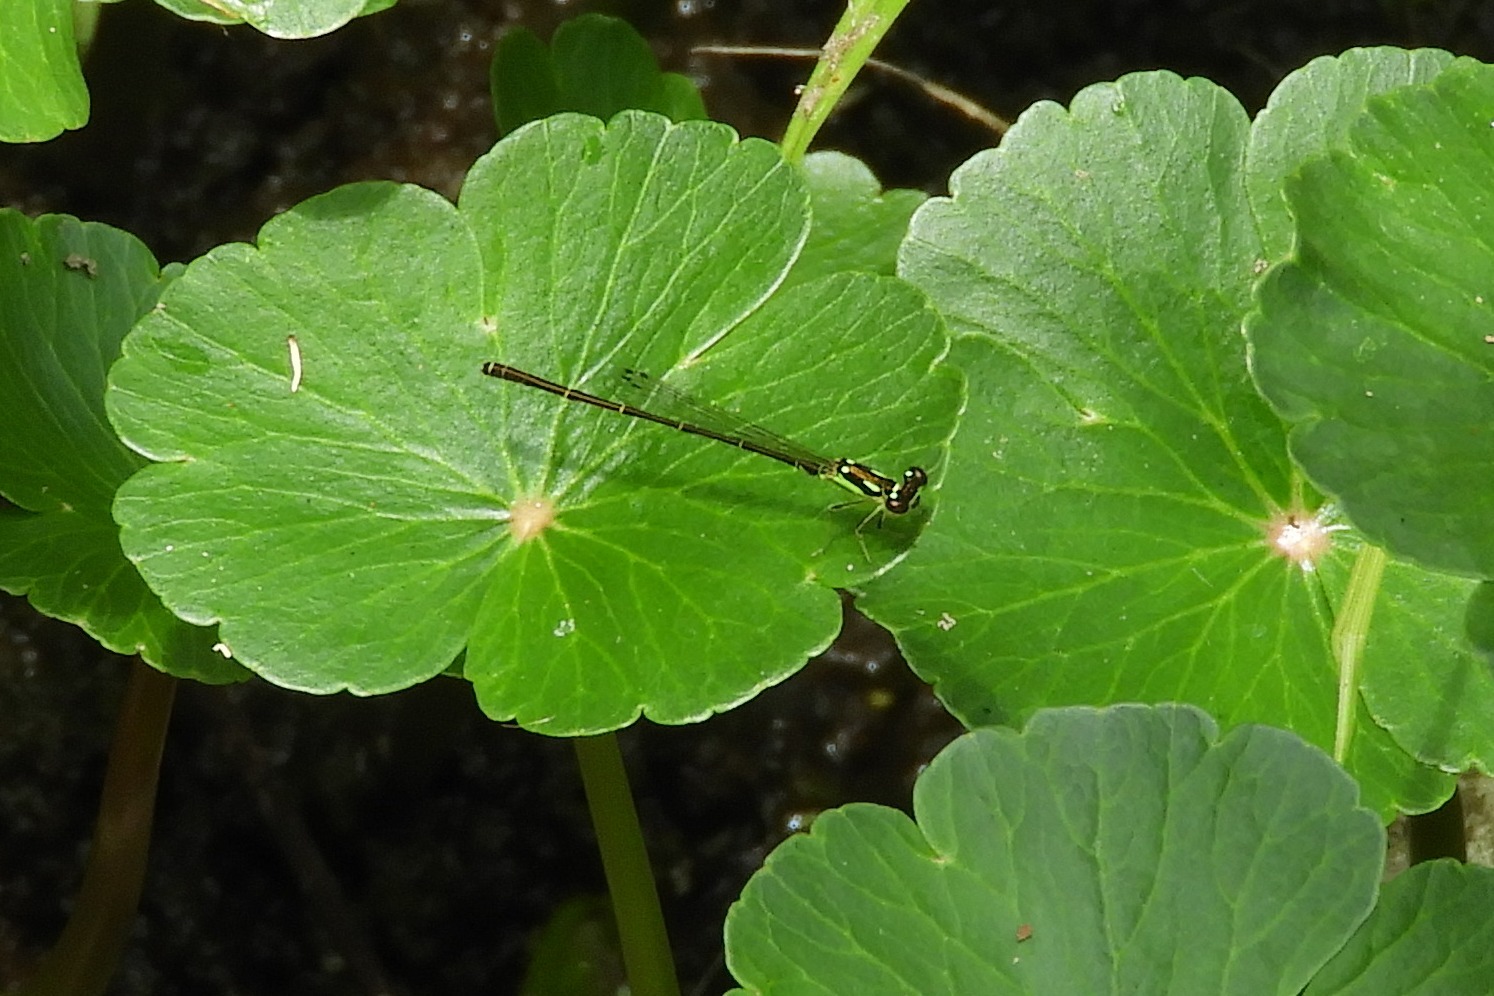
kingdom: Animalia
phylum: Arthropoda
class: Insecta
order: Odonata
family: Coenagrionidae
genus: Ischnura
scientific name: Ischnura posita
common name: Fragile forktail
